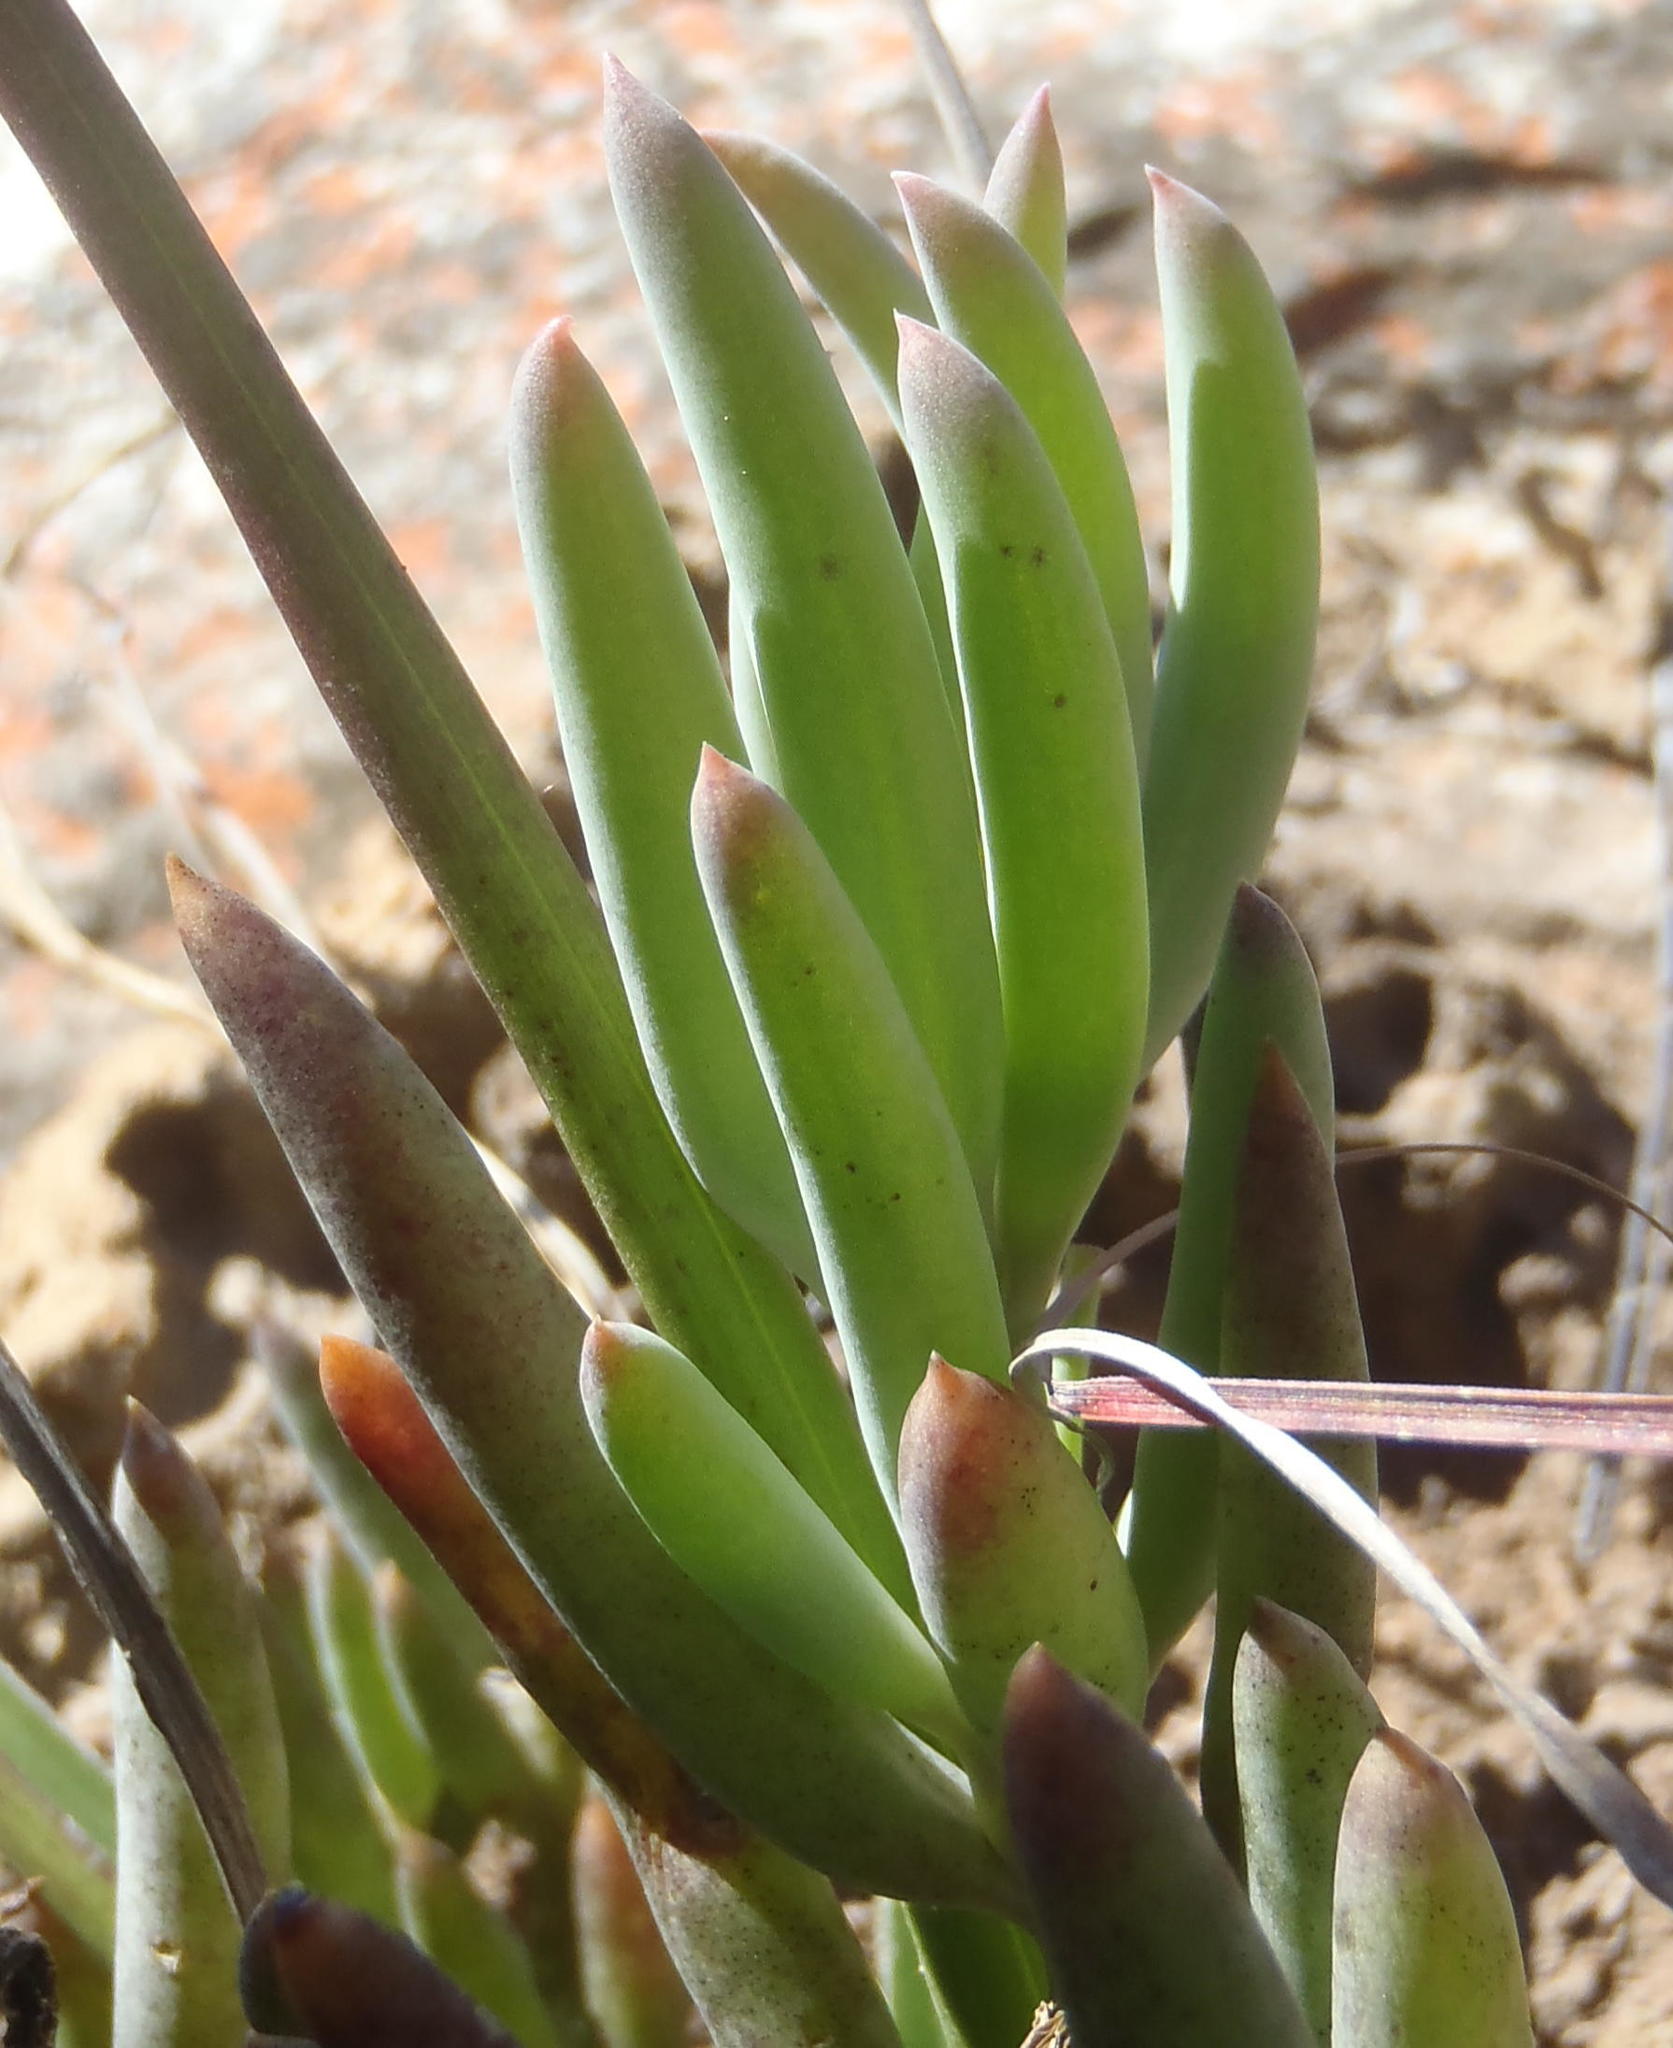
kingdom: Plantae
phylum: Tracheophyta
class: Magnoliopsida
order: Asterales
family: Asteraceae
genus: Crassothonna
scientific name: Crassothonna alba
